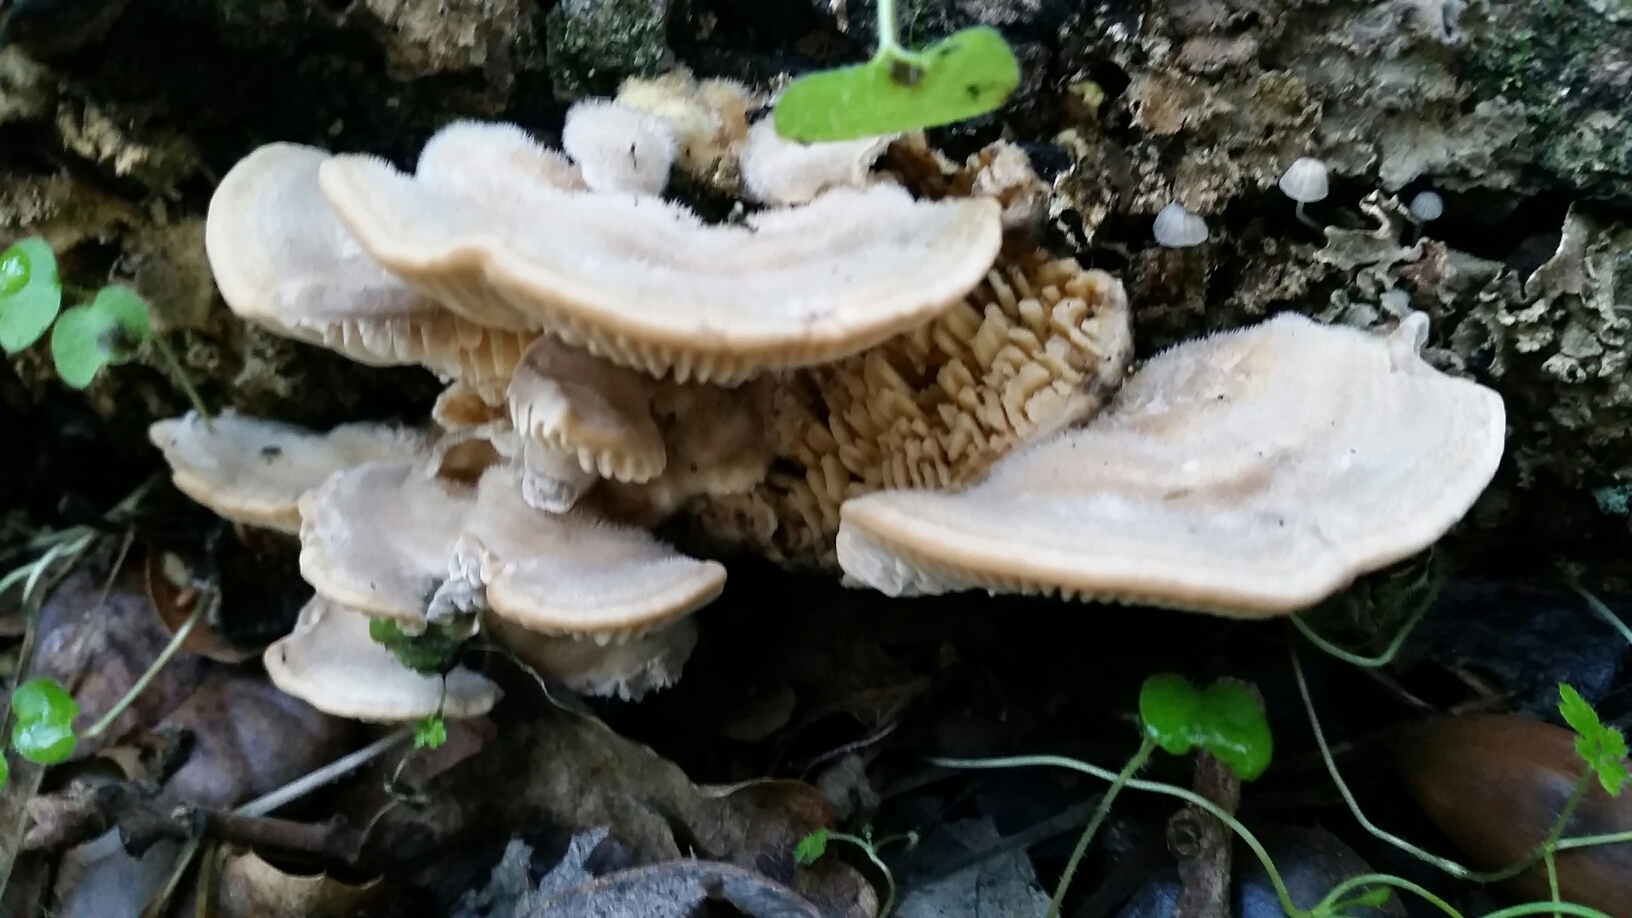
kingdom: Fungi
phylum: Basidiomycota
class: Agaricomycetes
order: Polyporales
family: Polyporaceae
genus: Lenzites
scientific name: Lenzites betulinus
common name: Birch mazegill
